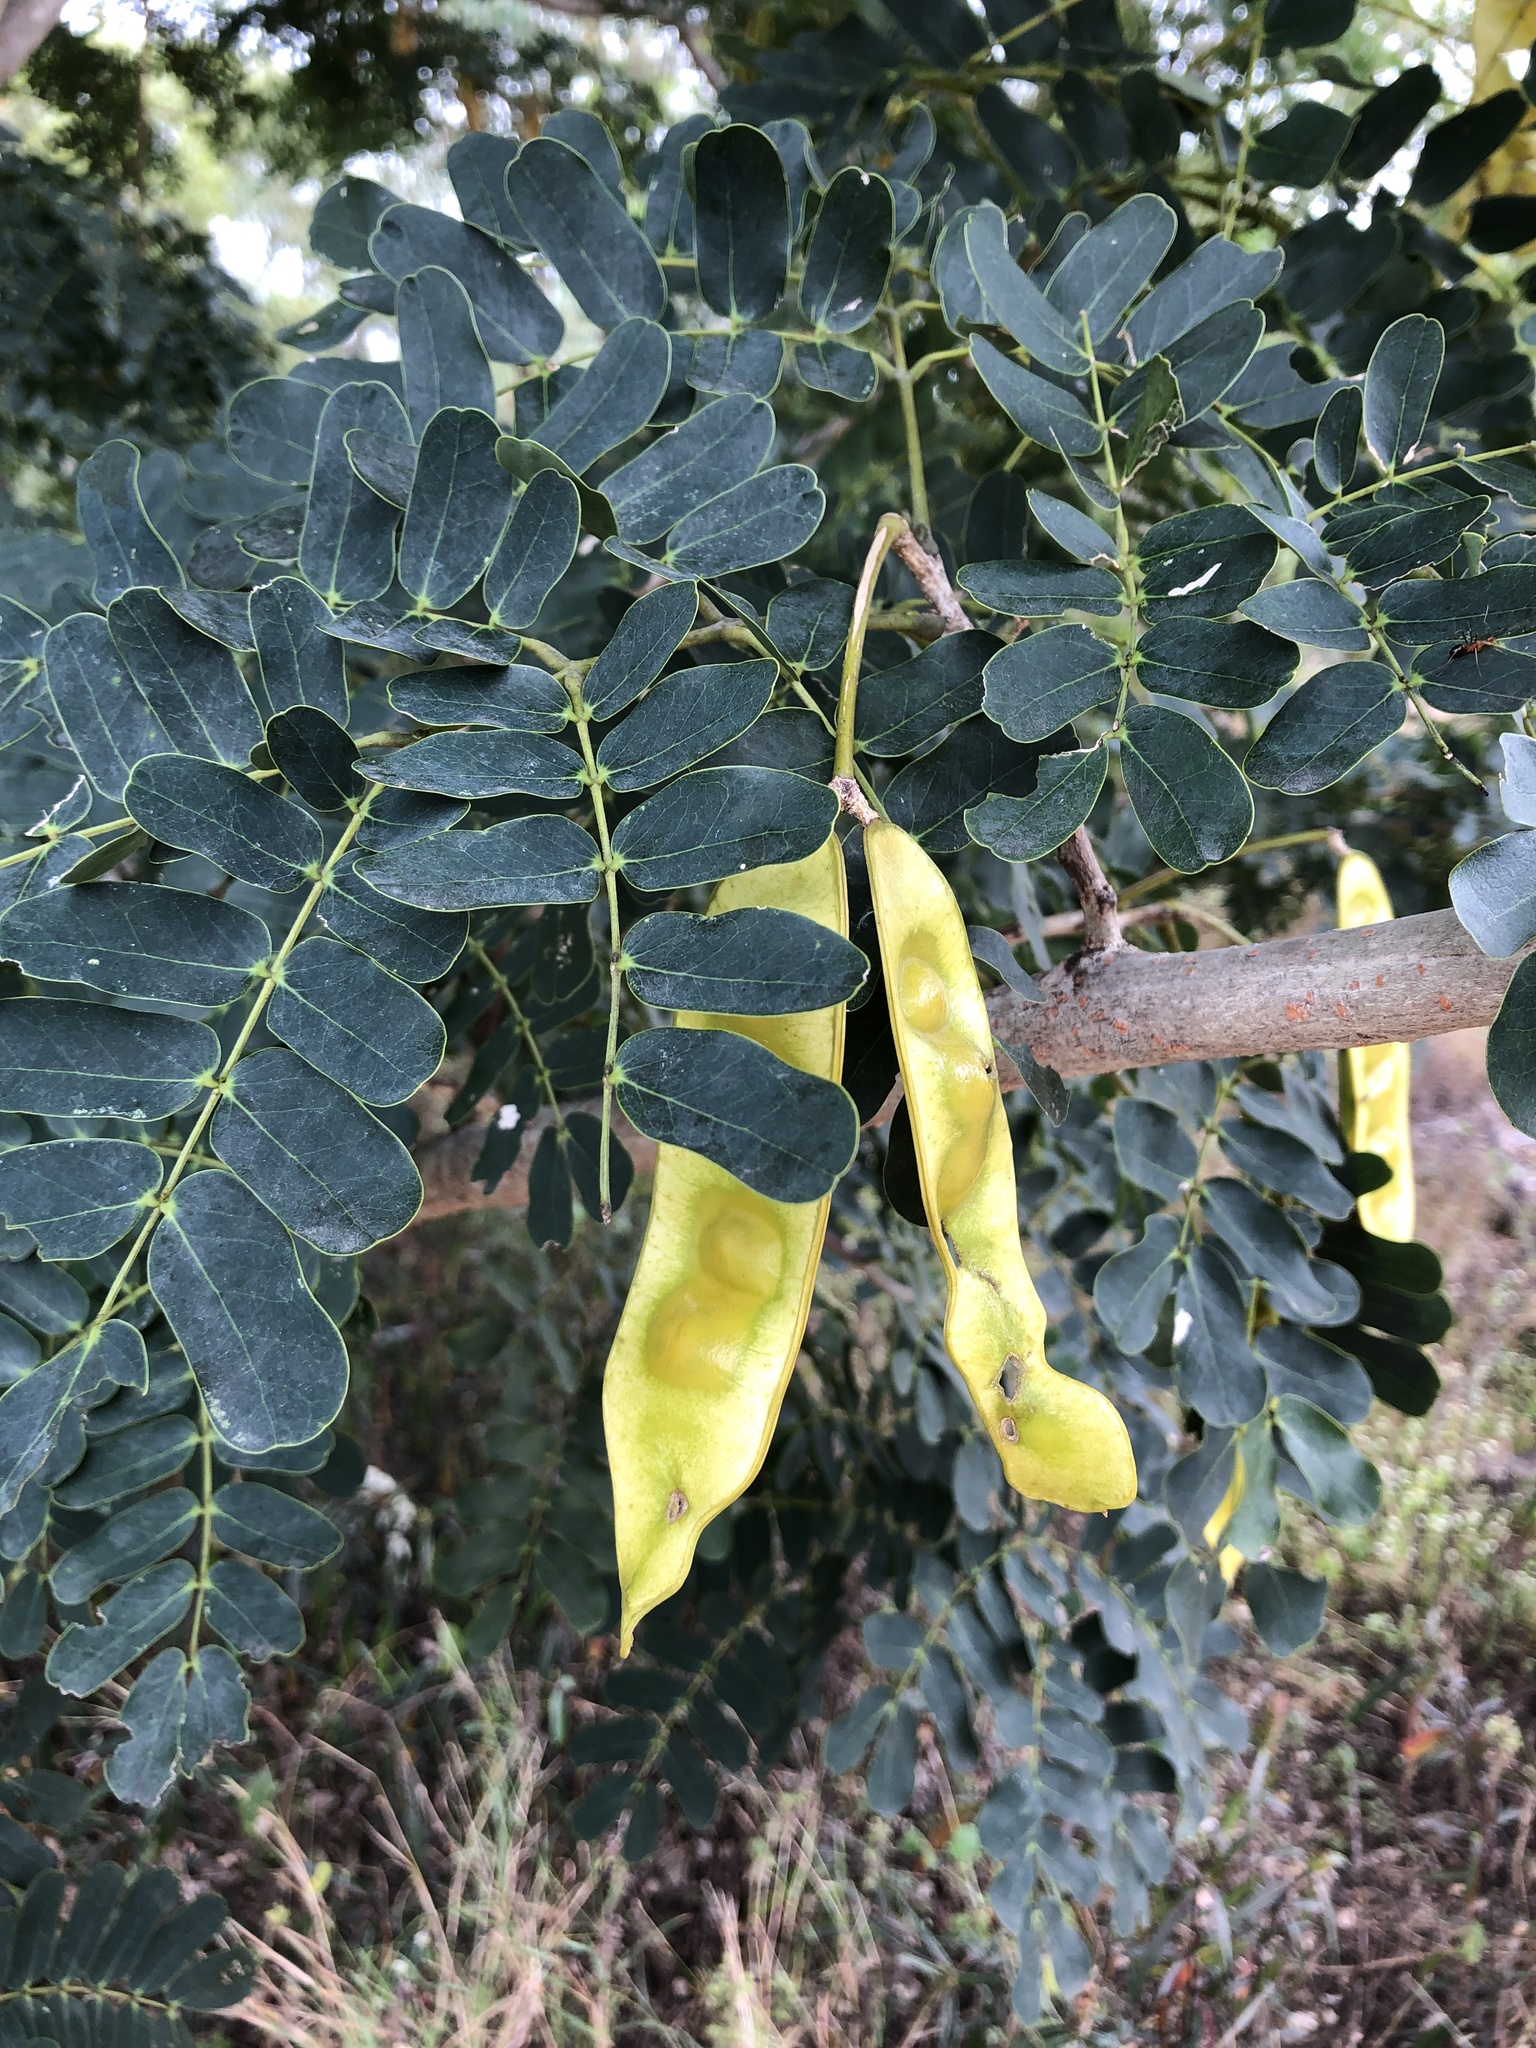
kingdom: Plantae
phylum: Tracheophyta
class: Magnoliopsida
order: Fabales
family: Fabaceae
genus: Albizia
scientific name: Albizia lebbeck
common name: Woman's tongue
